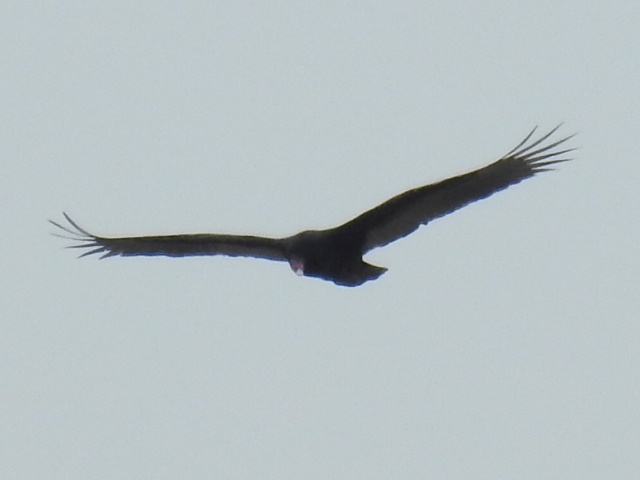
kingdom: Animalia
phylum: Chordata
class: Aves
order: Accipitriformes
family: Cathartidae
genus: Cathartes
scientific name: Cathartes aura
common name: Turkey vulture
